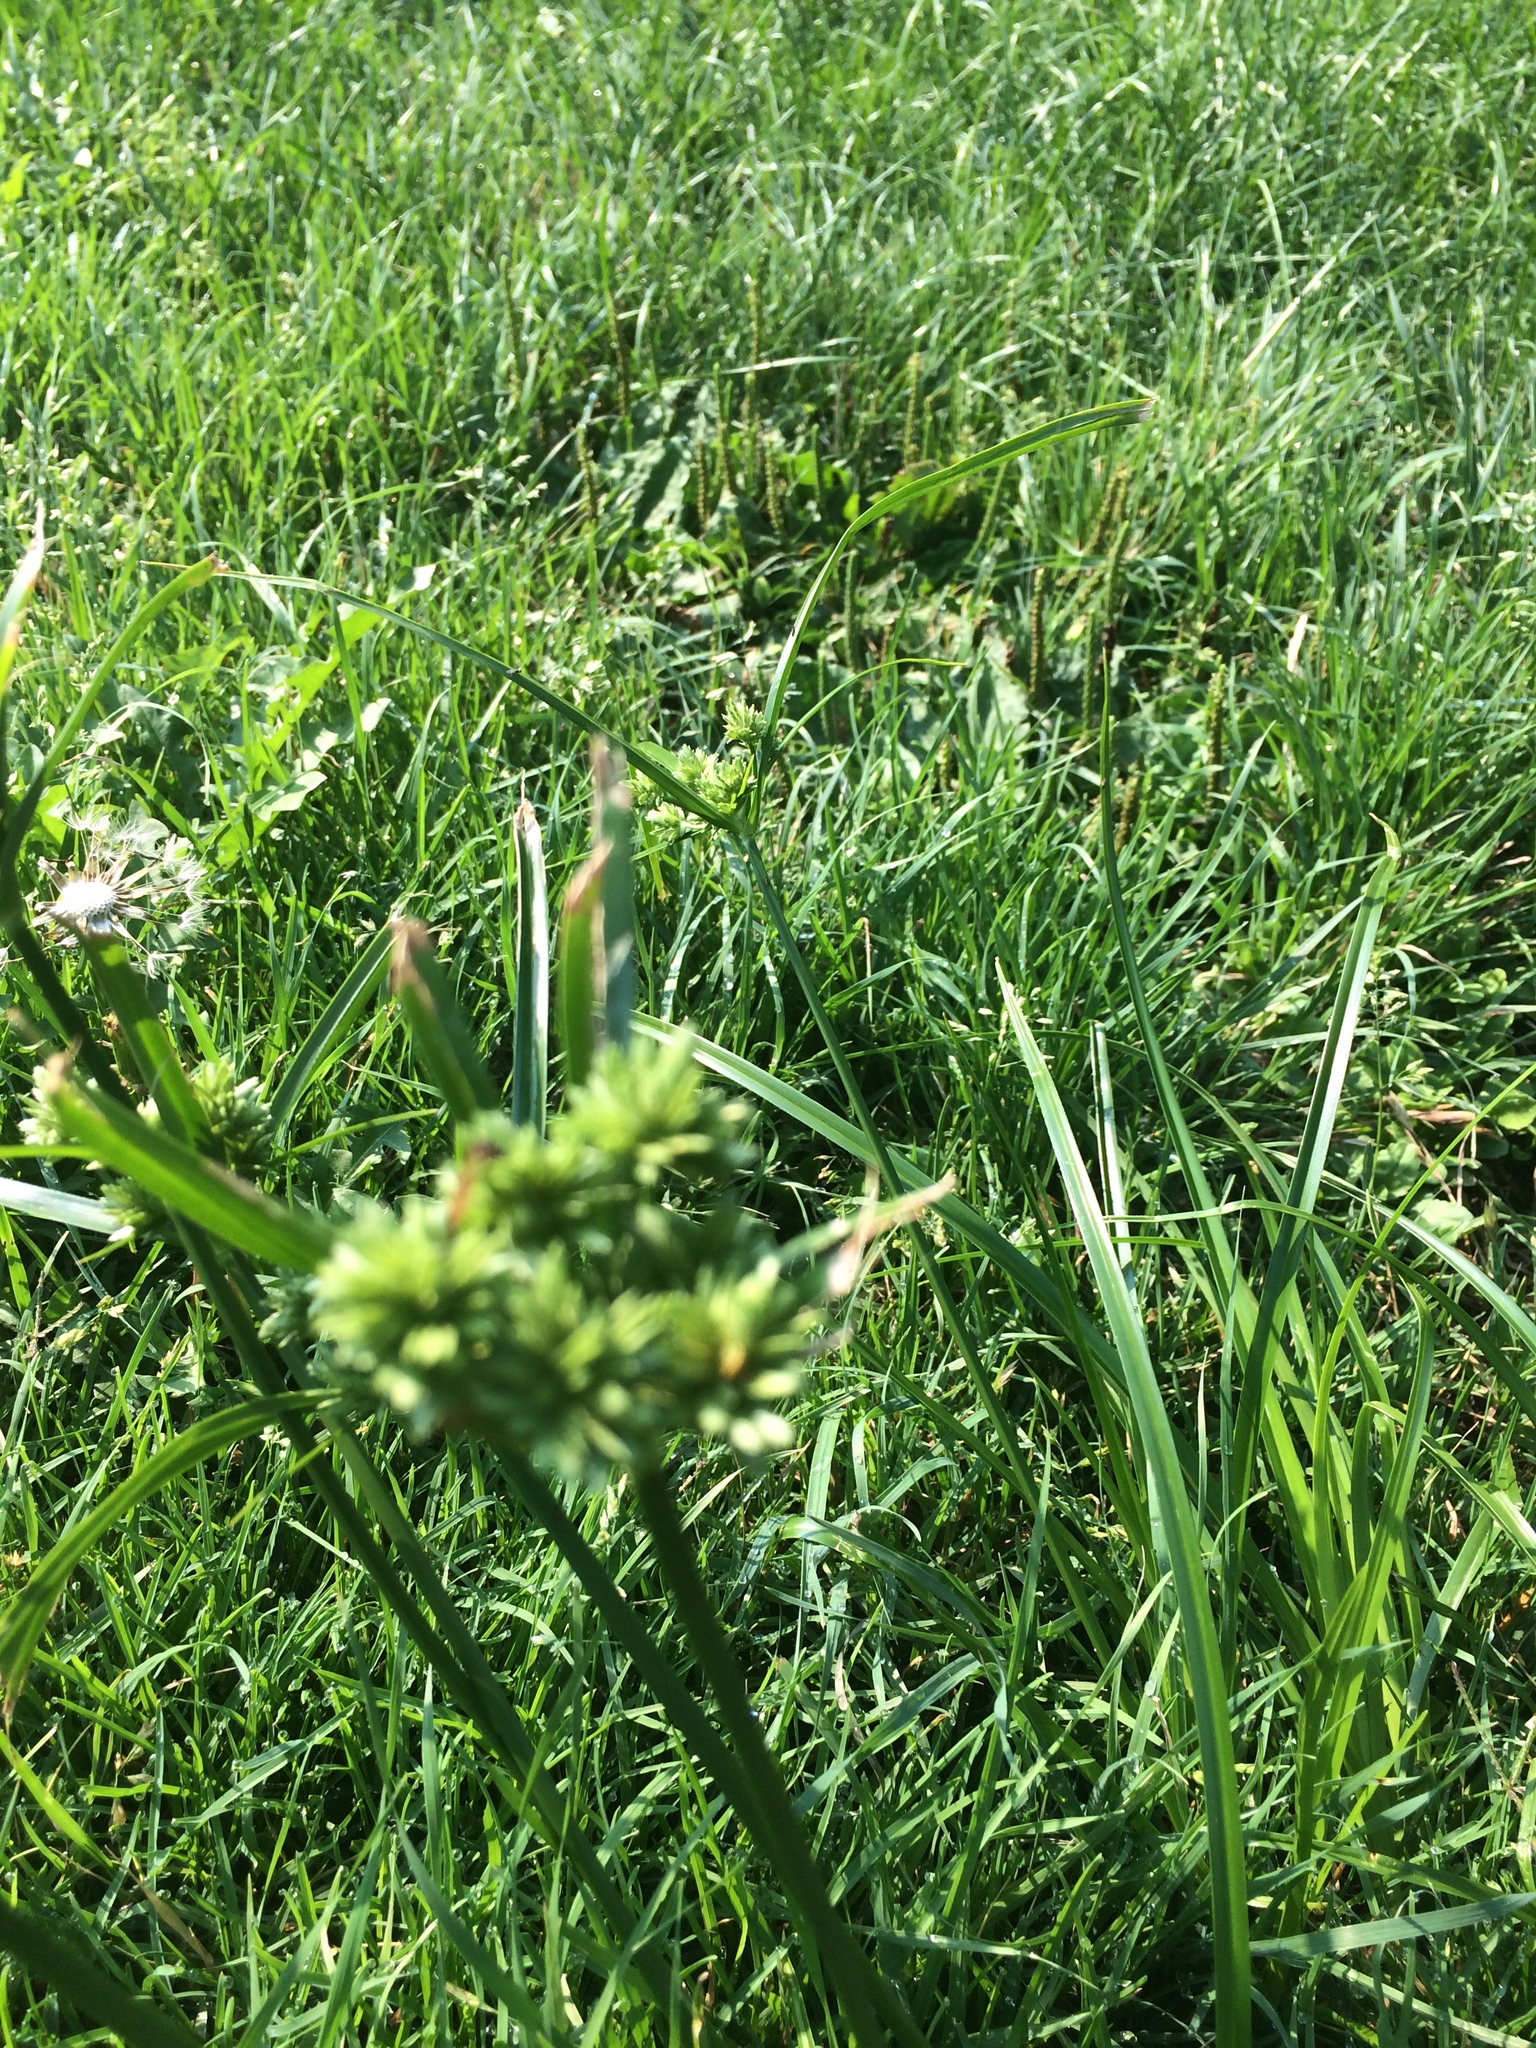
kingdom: Plantae
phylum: Tracheophyta
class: Liliopsida
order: Poales
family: Cyperaceae
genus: Cyperus
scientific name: Cyperus eragrostis
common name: Tall flatsedge
